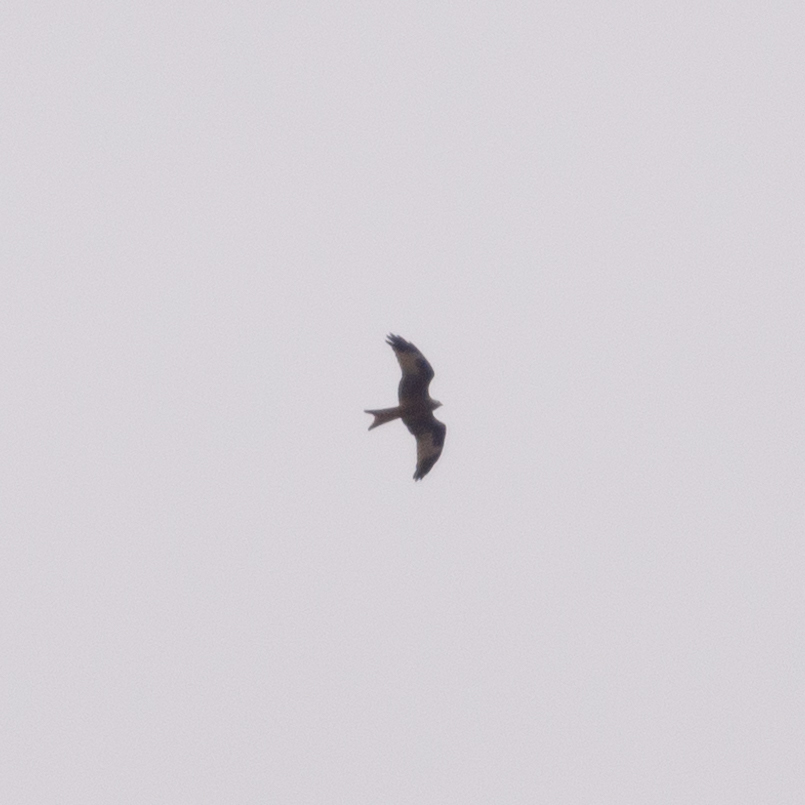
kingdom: Animalia
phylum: Chordata
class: Aves
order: Accipitriformes
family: Accipitridae
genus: Milvus
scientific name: Milvus milvus
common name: Red kite
